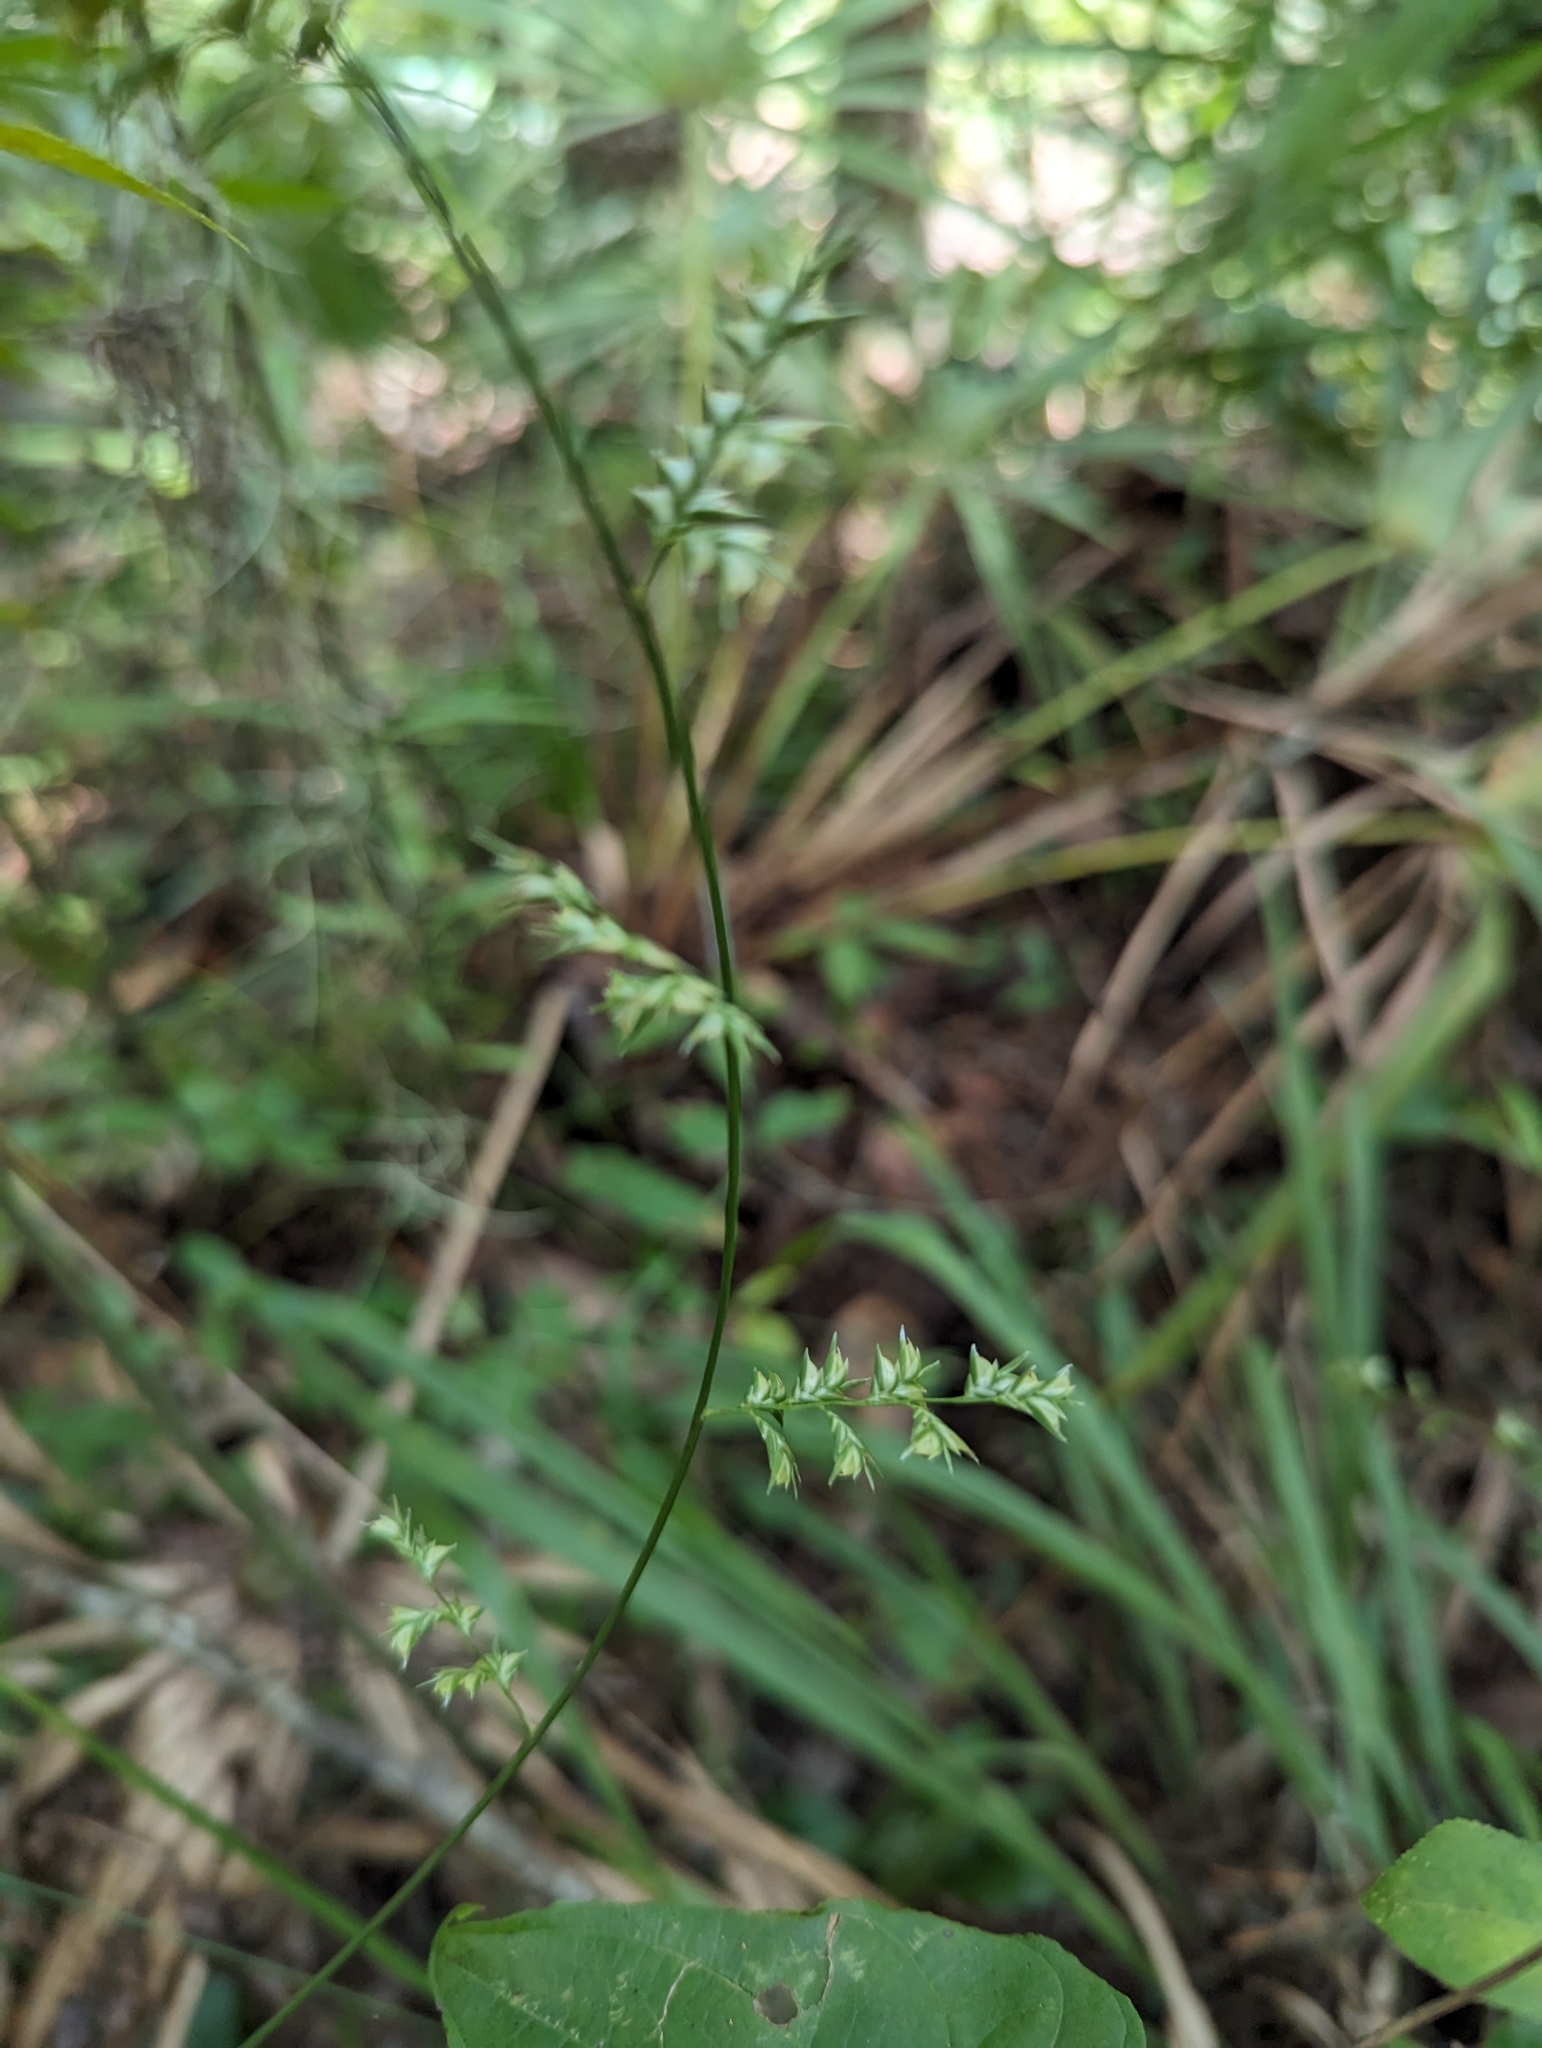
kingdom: Plantae
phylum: Tracheophyta
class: Liliopsida
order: Poales
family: Poaceae
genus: Chasmanthium
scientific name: Chasmanthium laxum
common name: Slender chasmanthium
